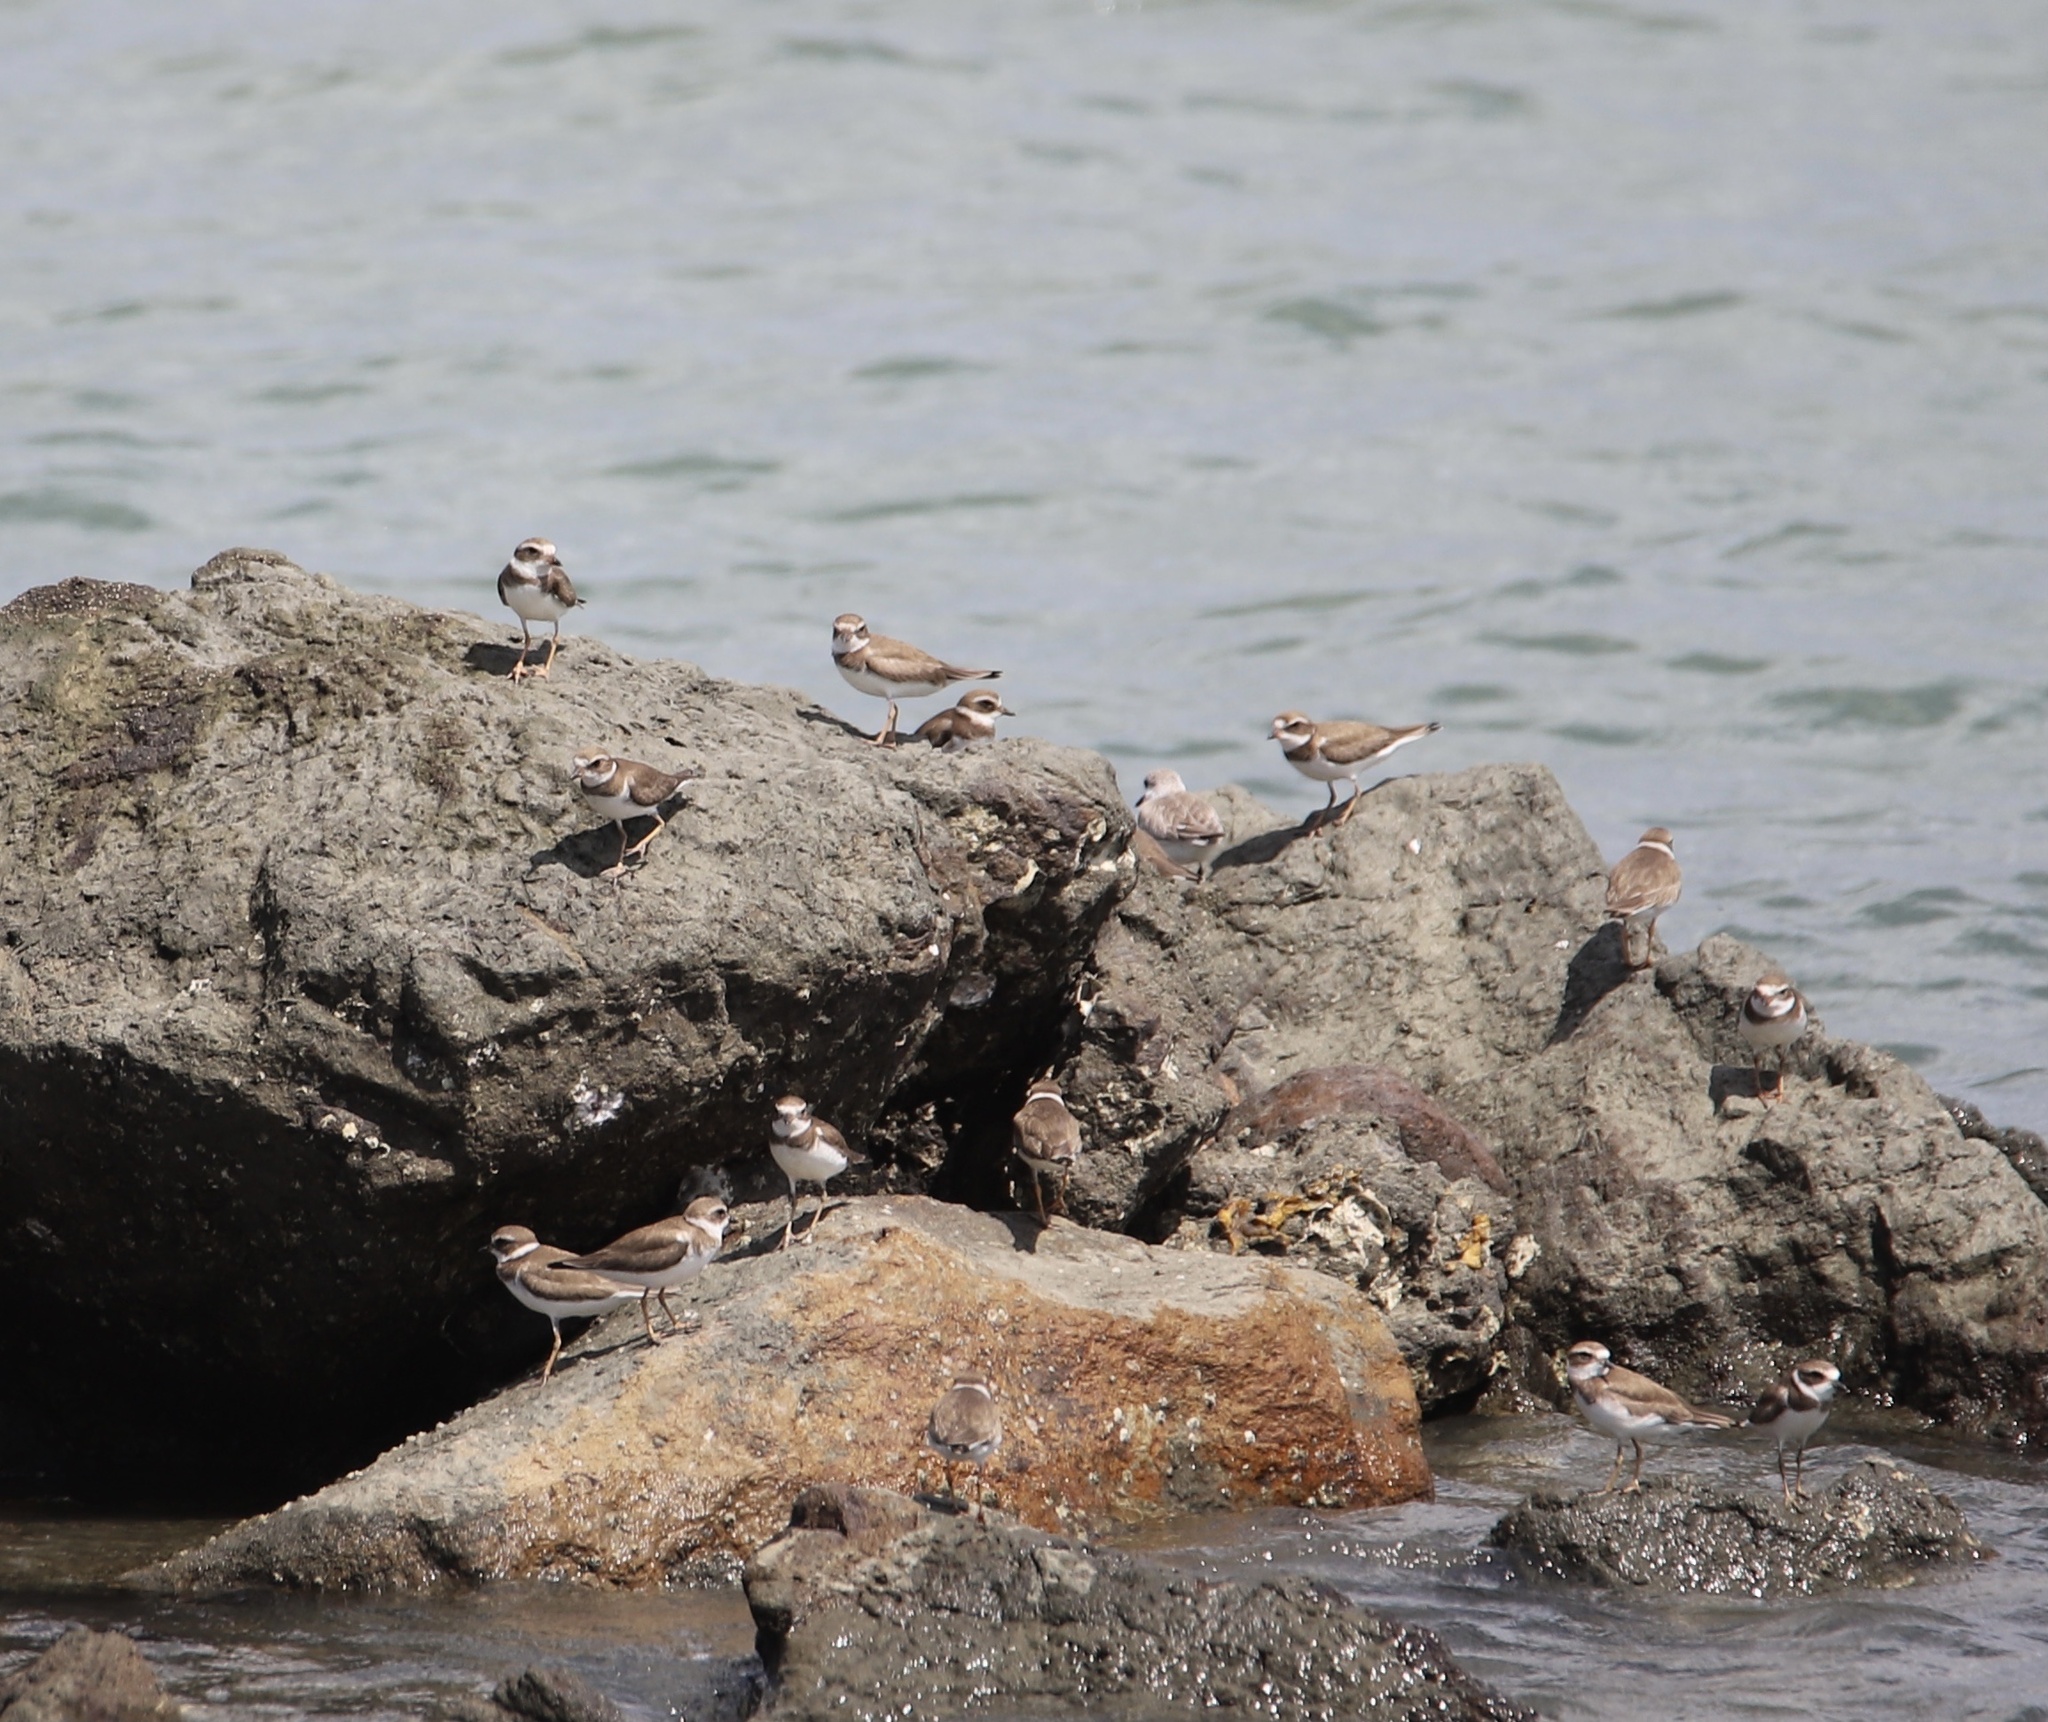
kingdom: Animalia
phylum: Chordata
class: Aves
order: Charadriiformes
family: Charadriidae
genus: Charadrius
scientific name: Charadrius semipalmatus
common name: Semipalmated plover
